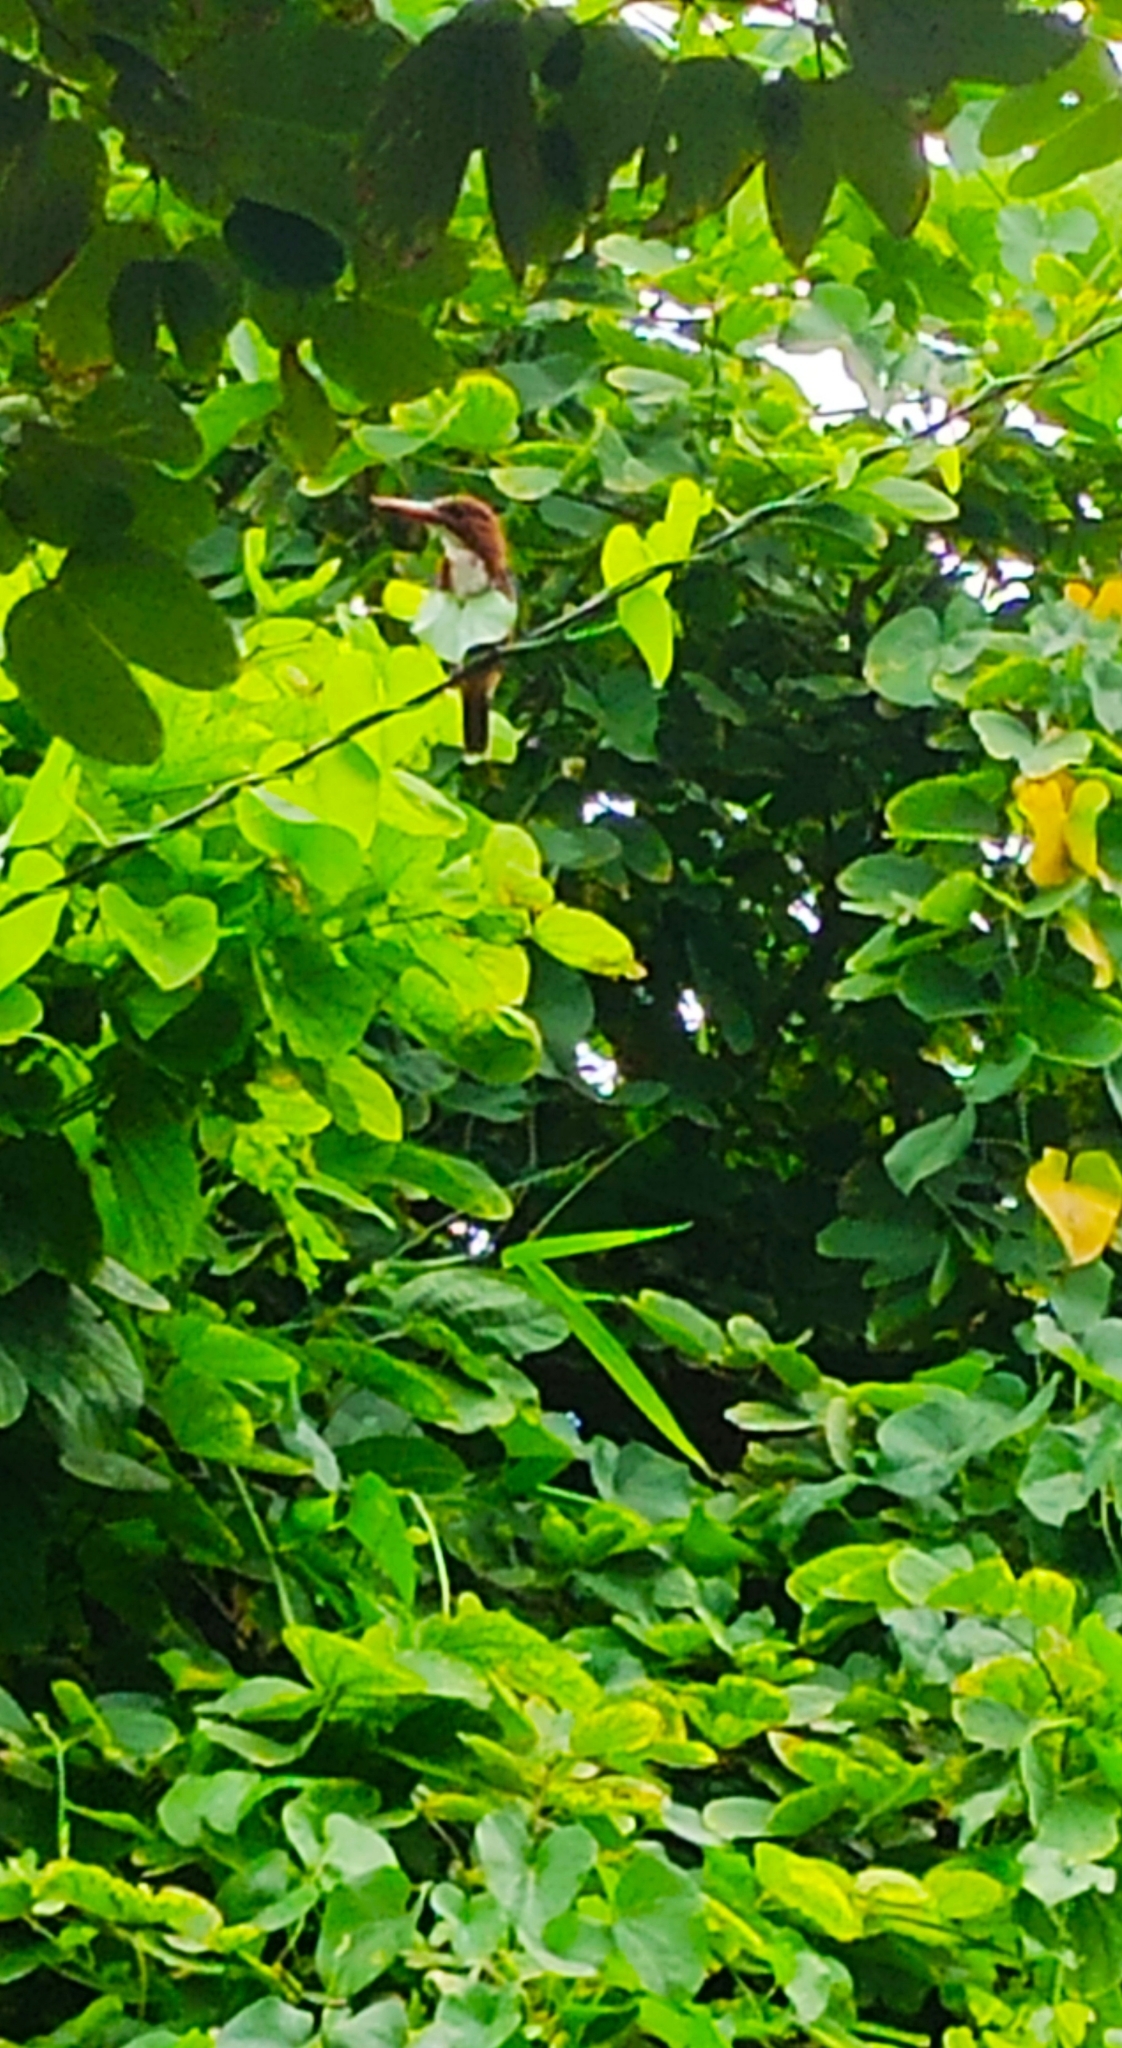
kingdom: Animalia
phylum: Chordata
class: Aves
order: Coraciiformes
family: Alcedinidae
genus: Halcyon
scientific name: Halcyon smyrnensis
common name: White-throated kingfisher
